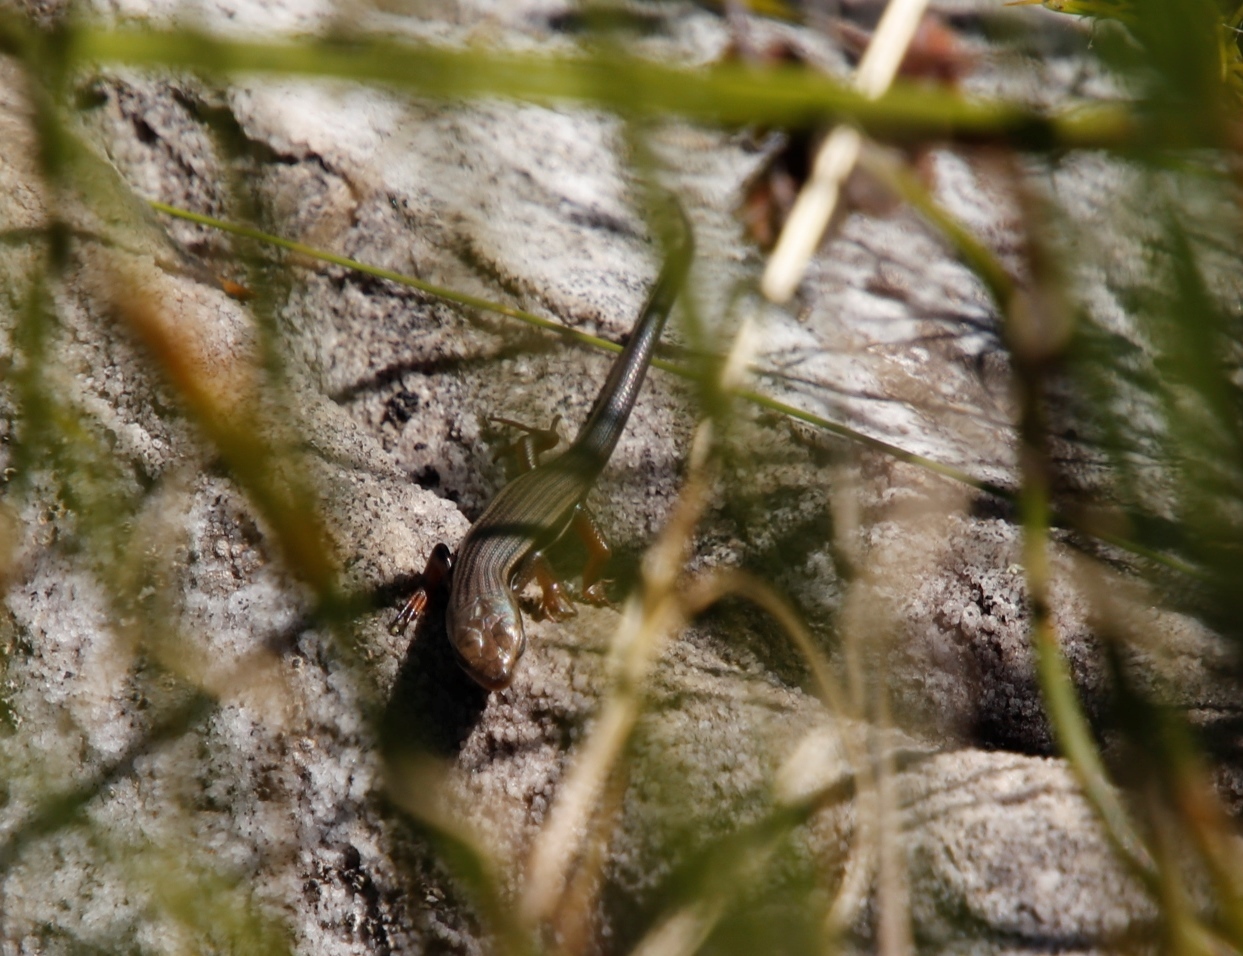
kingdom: Animalia
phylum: Chordata
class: Squamata
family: Scincidae
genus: Trachylepis
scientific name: Trachylepis homalocephala
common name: Red-sided skink
